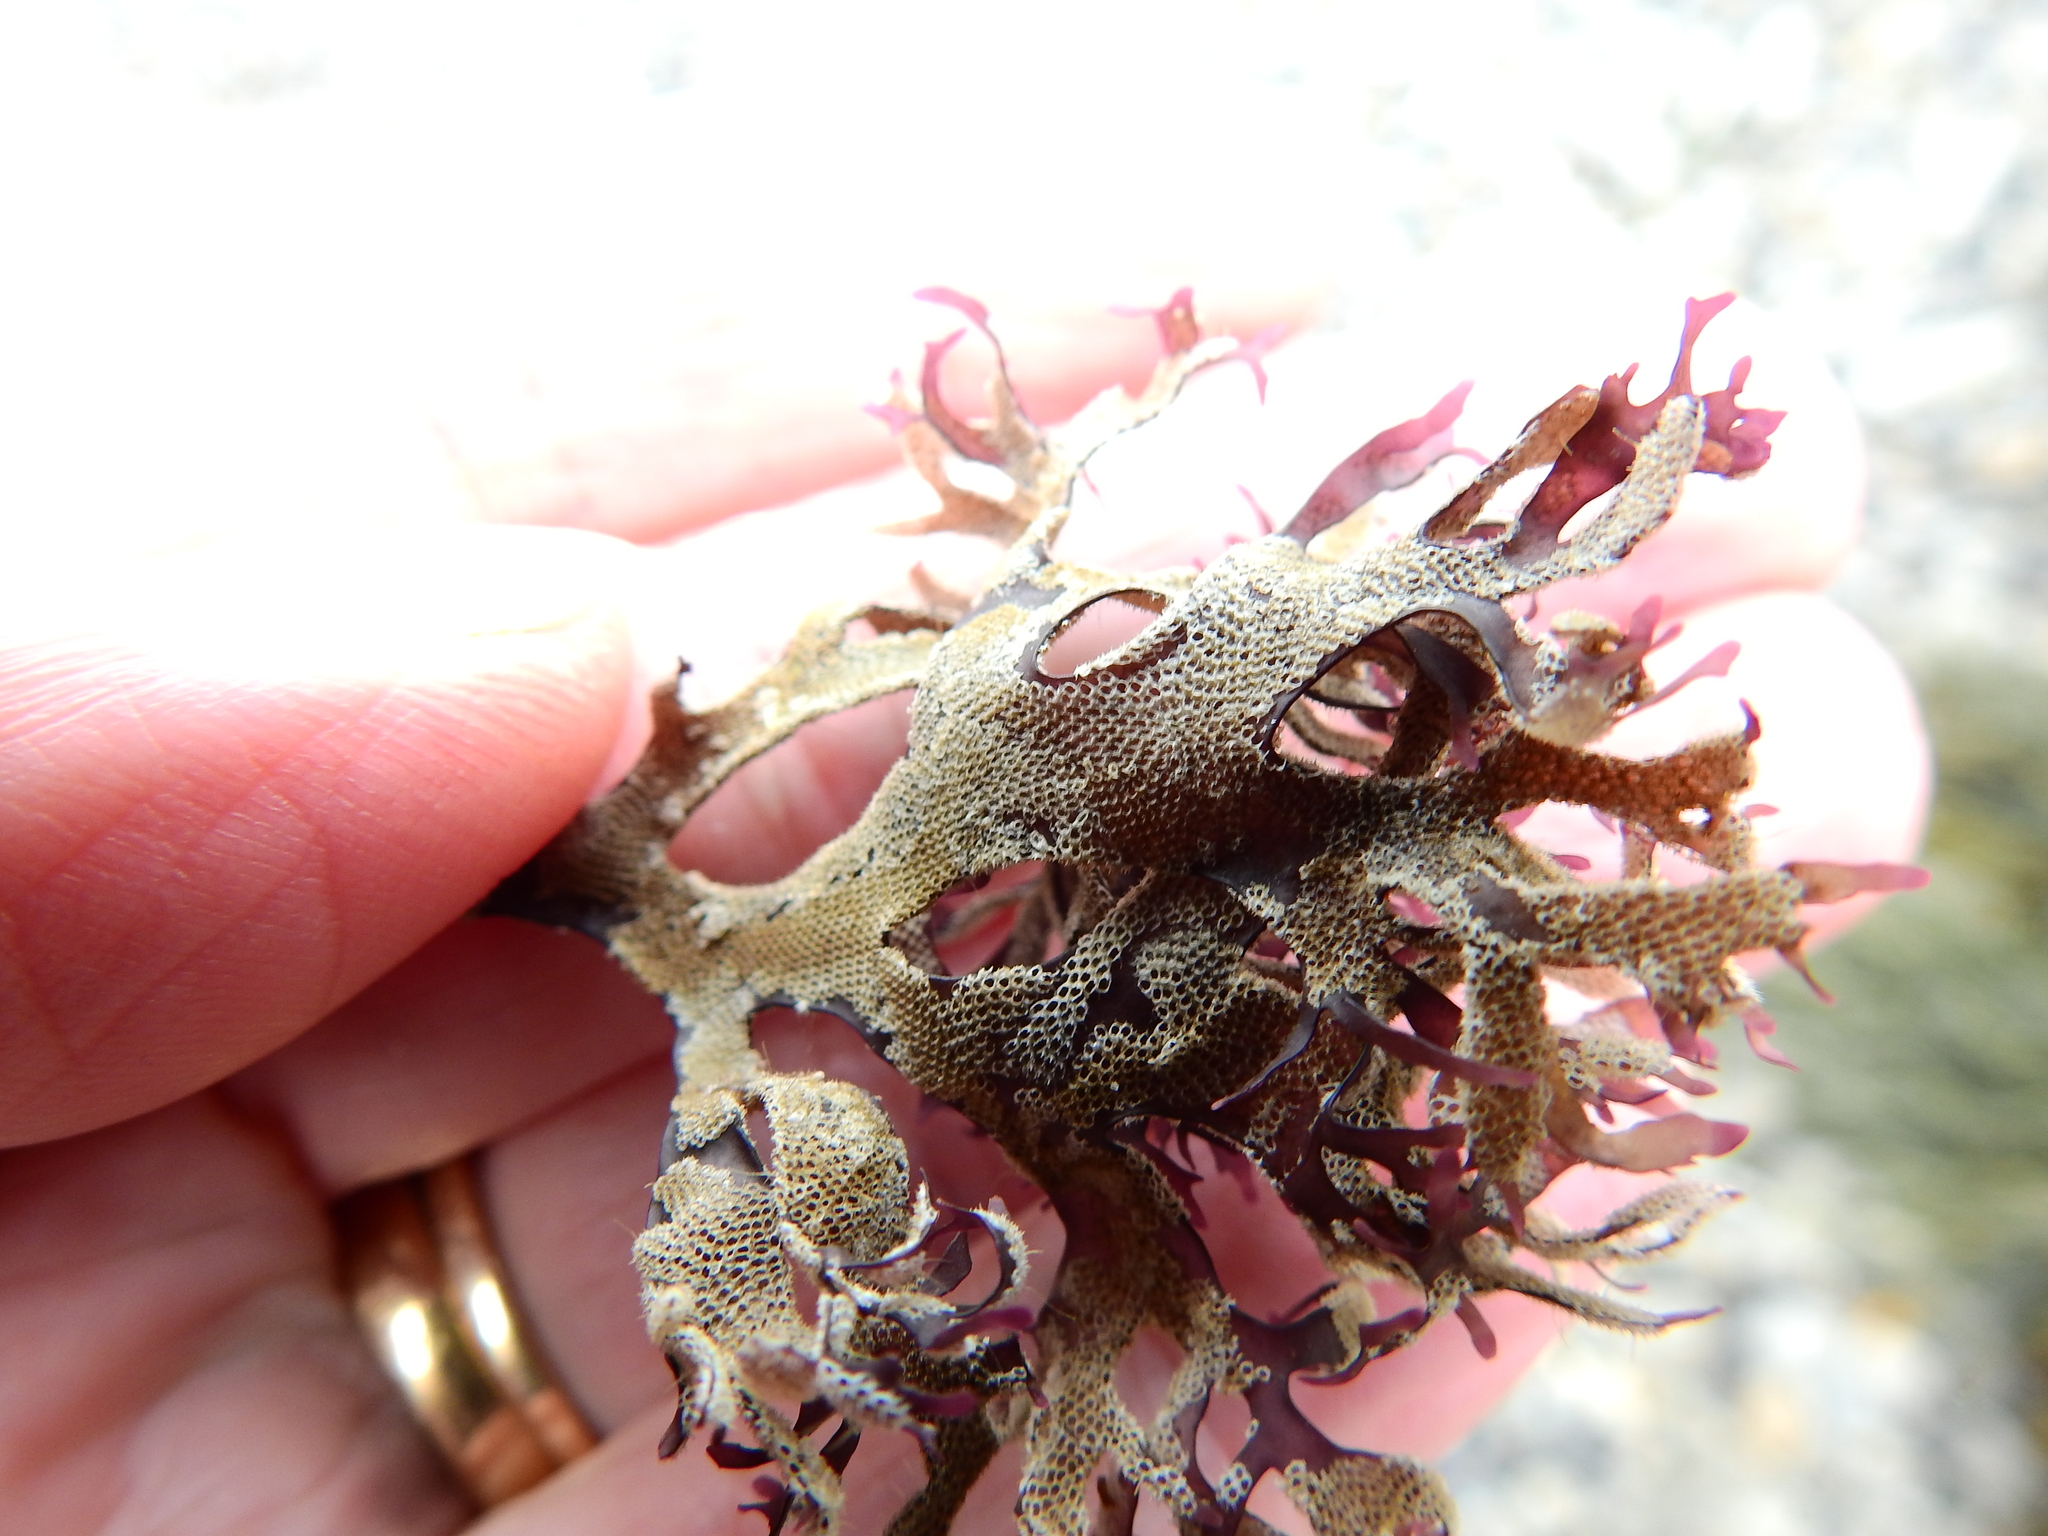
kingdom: Animalia
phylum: Bryozoa
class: Gymnolaemata
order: Cheilostomatida
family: Electridae
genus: Electra
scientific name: Electra pilosa
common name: Hairy sea-mat
